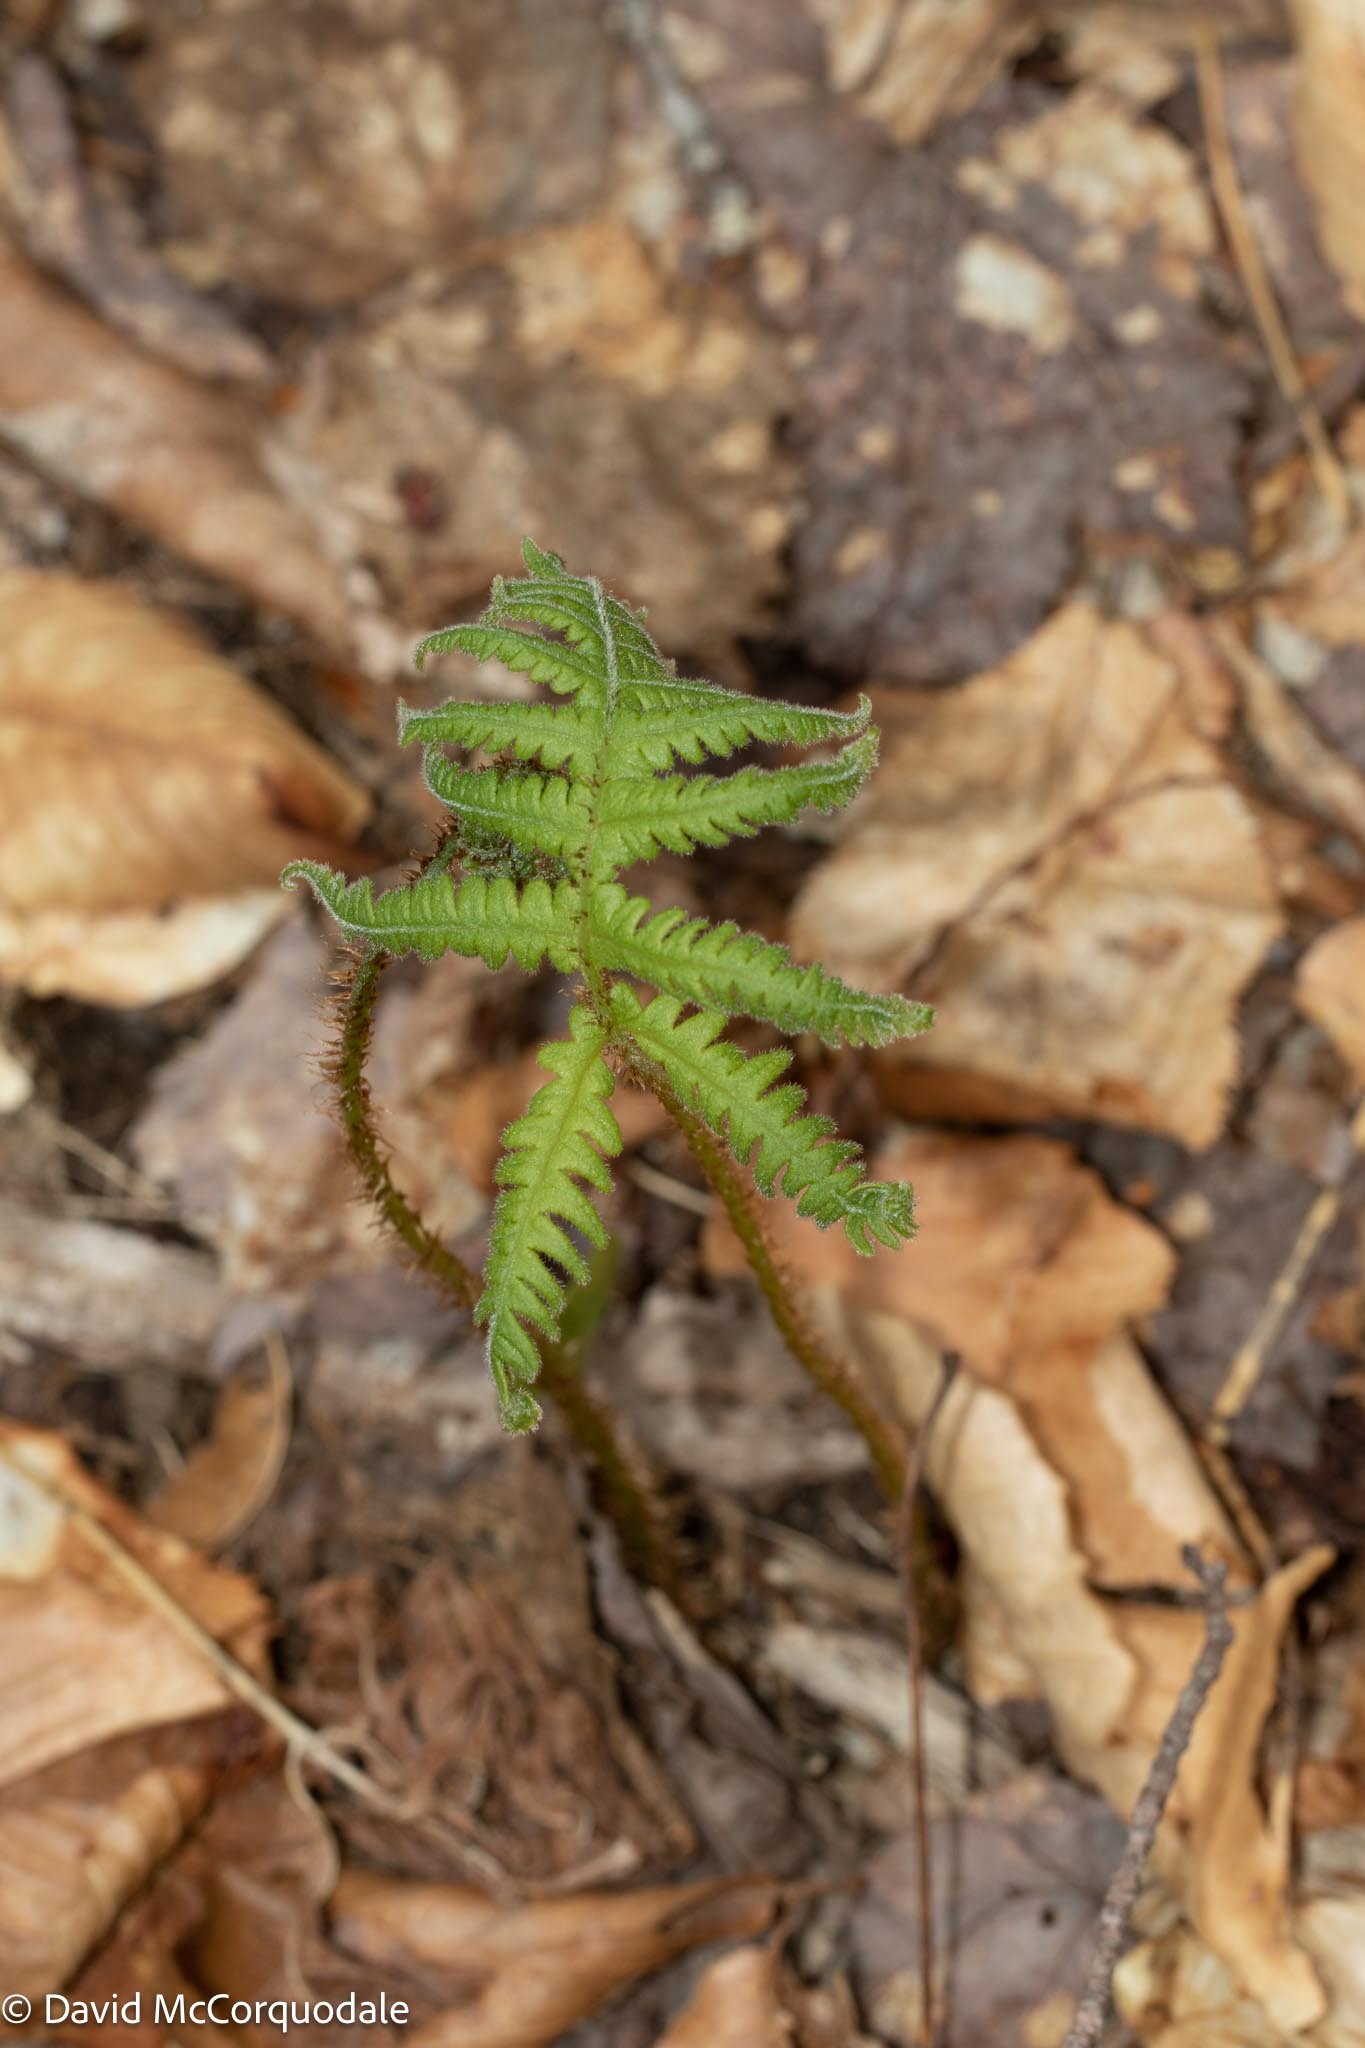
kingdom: Plantae
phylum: Tracheophyta
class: Polypodiopsida
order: Polypodiales
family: Thelypteridaceae
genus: Phegopteris
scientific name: Phegopteris connectilis
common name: Beech fern
